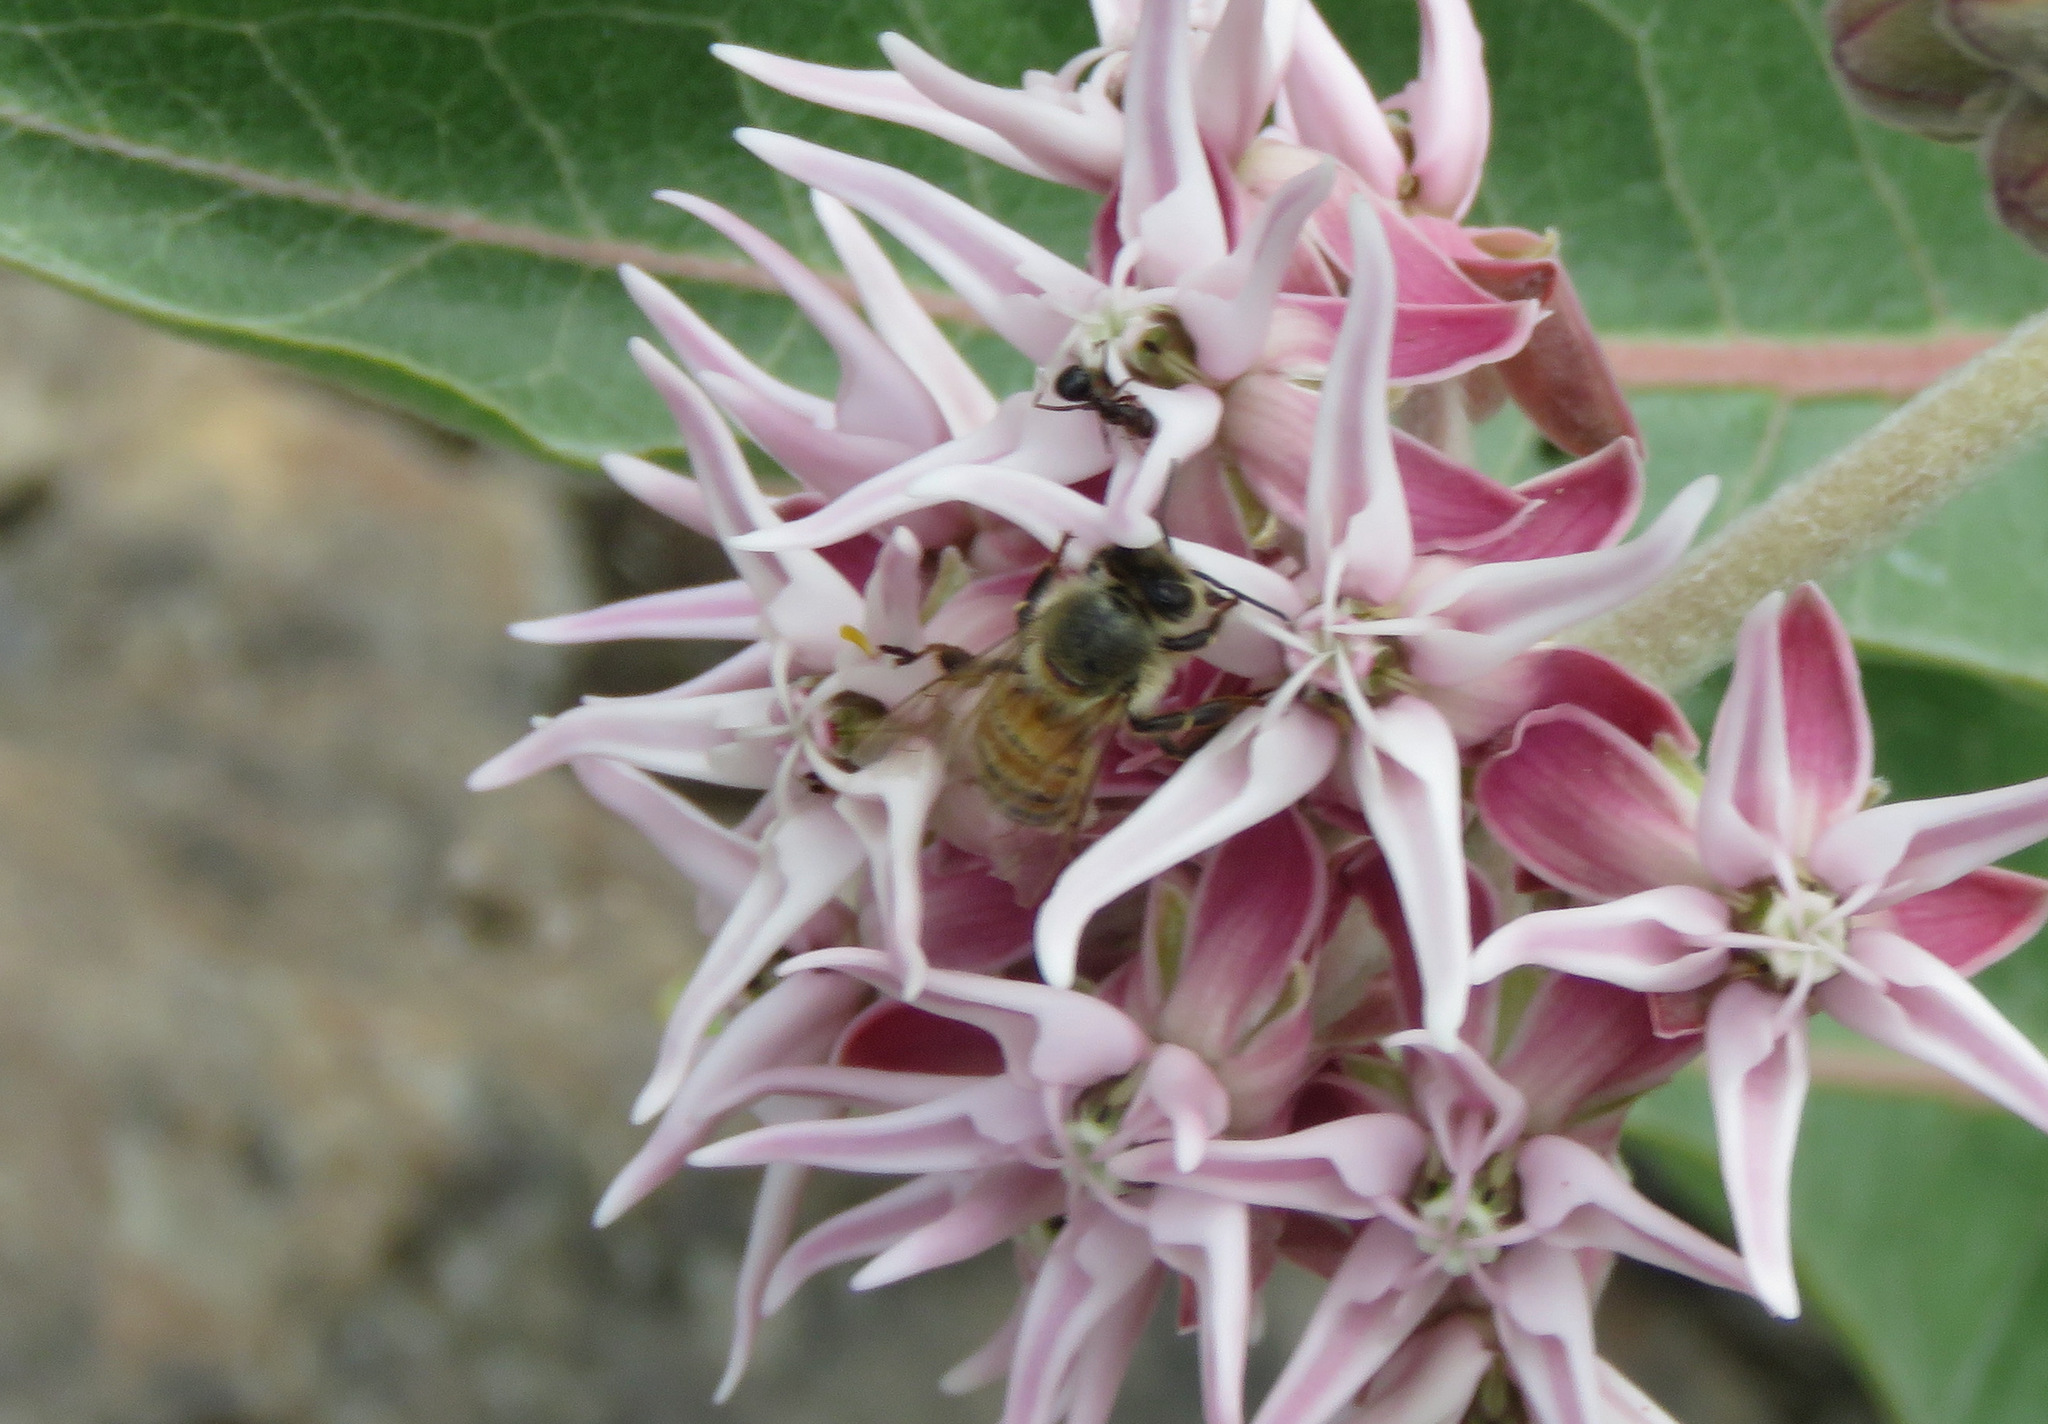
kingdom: Animalia
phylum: Arthropoda
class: Insecta
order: Hymenoptera
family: Apidae
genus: Apis
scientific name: Apis mellifera
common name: Honey bee
